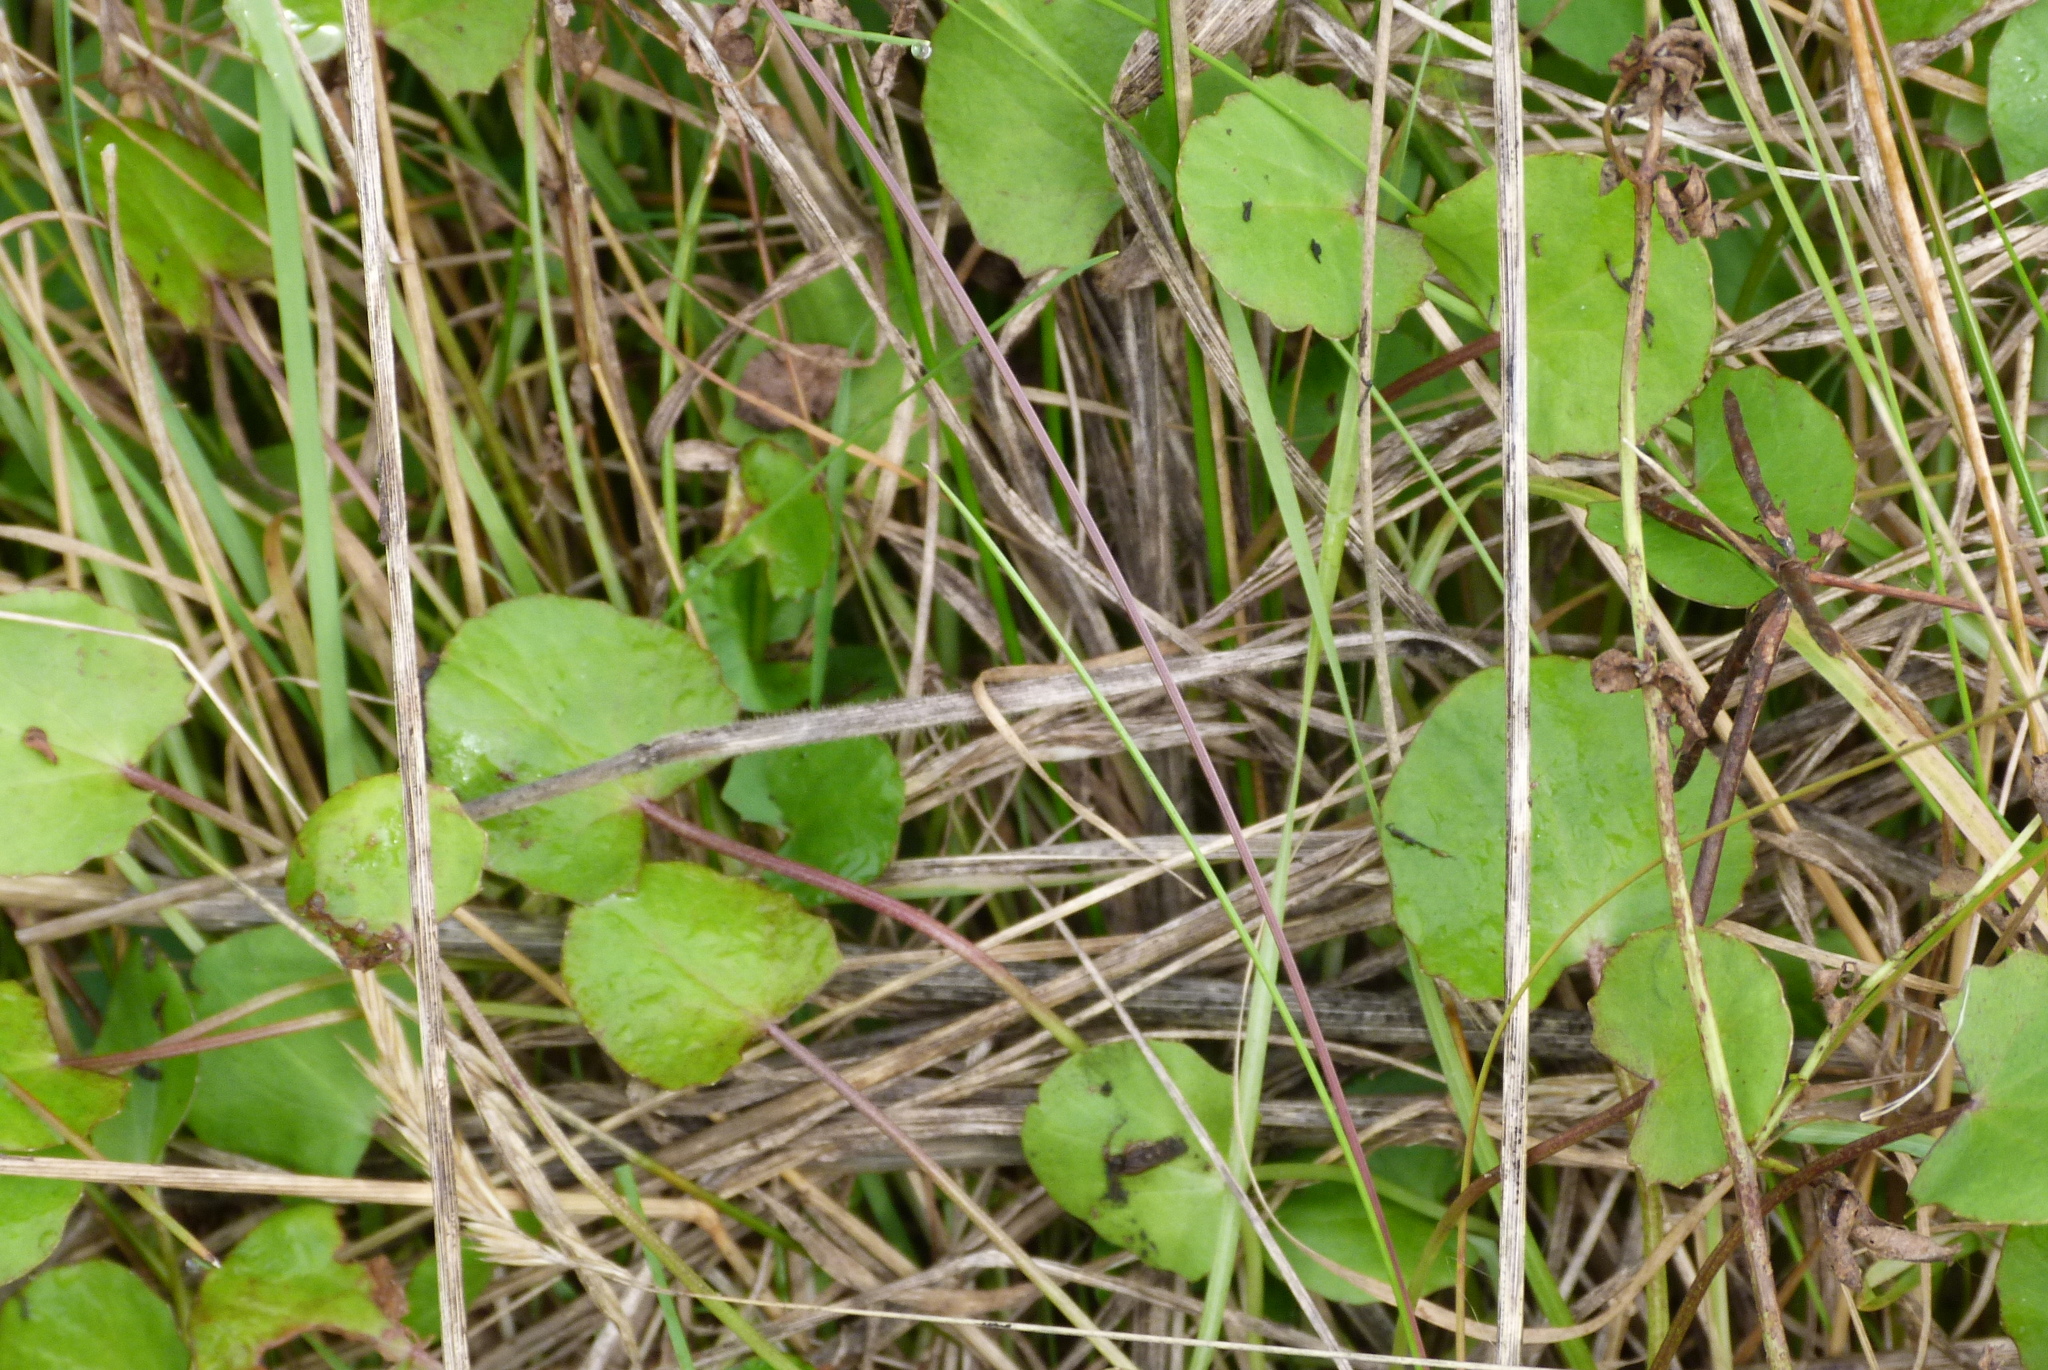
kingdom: Plantae
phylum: Tracheophyta
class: Magnoliopsida
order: Apiales
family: Apiaceae
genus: Centella
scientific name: Centella uniflora
